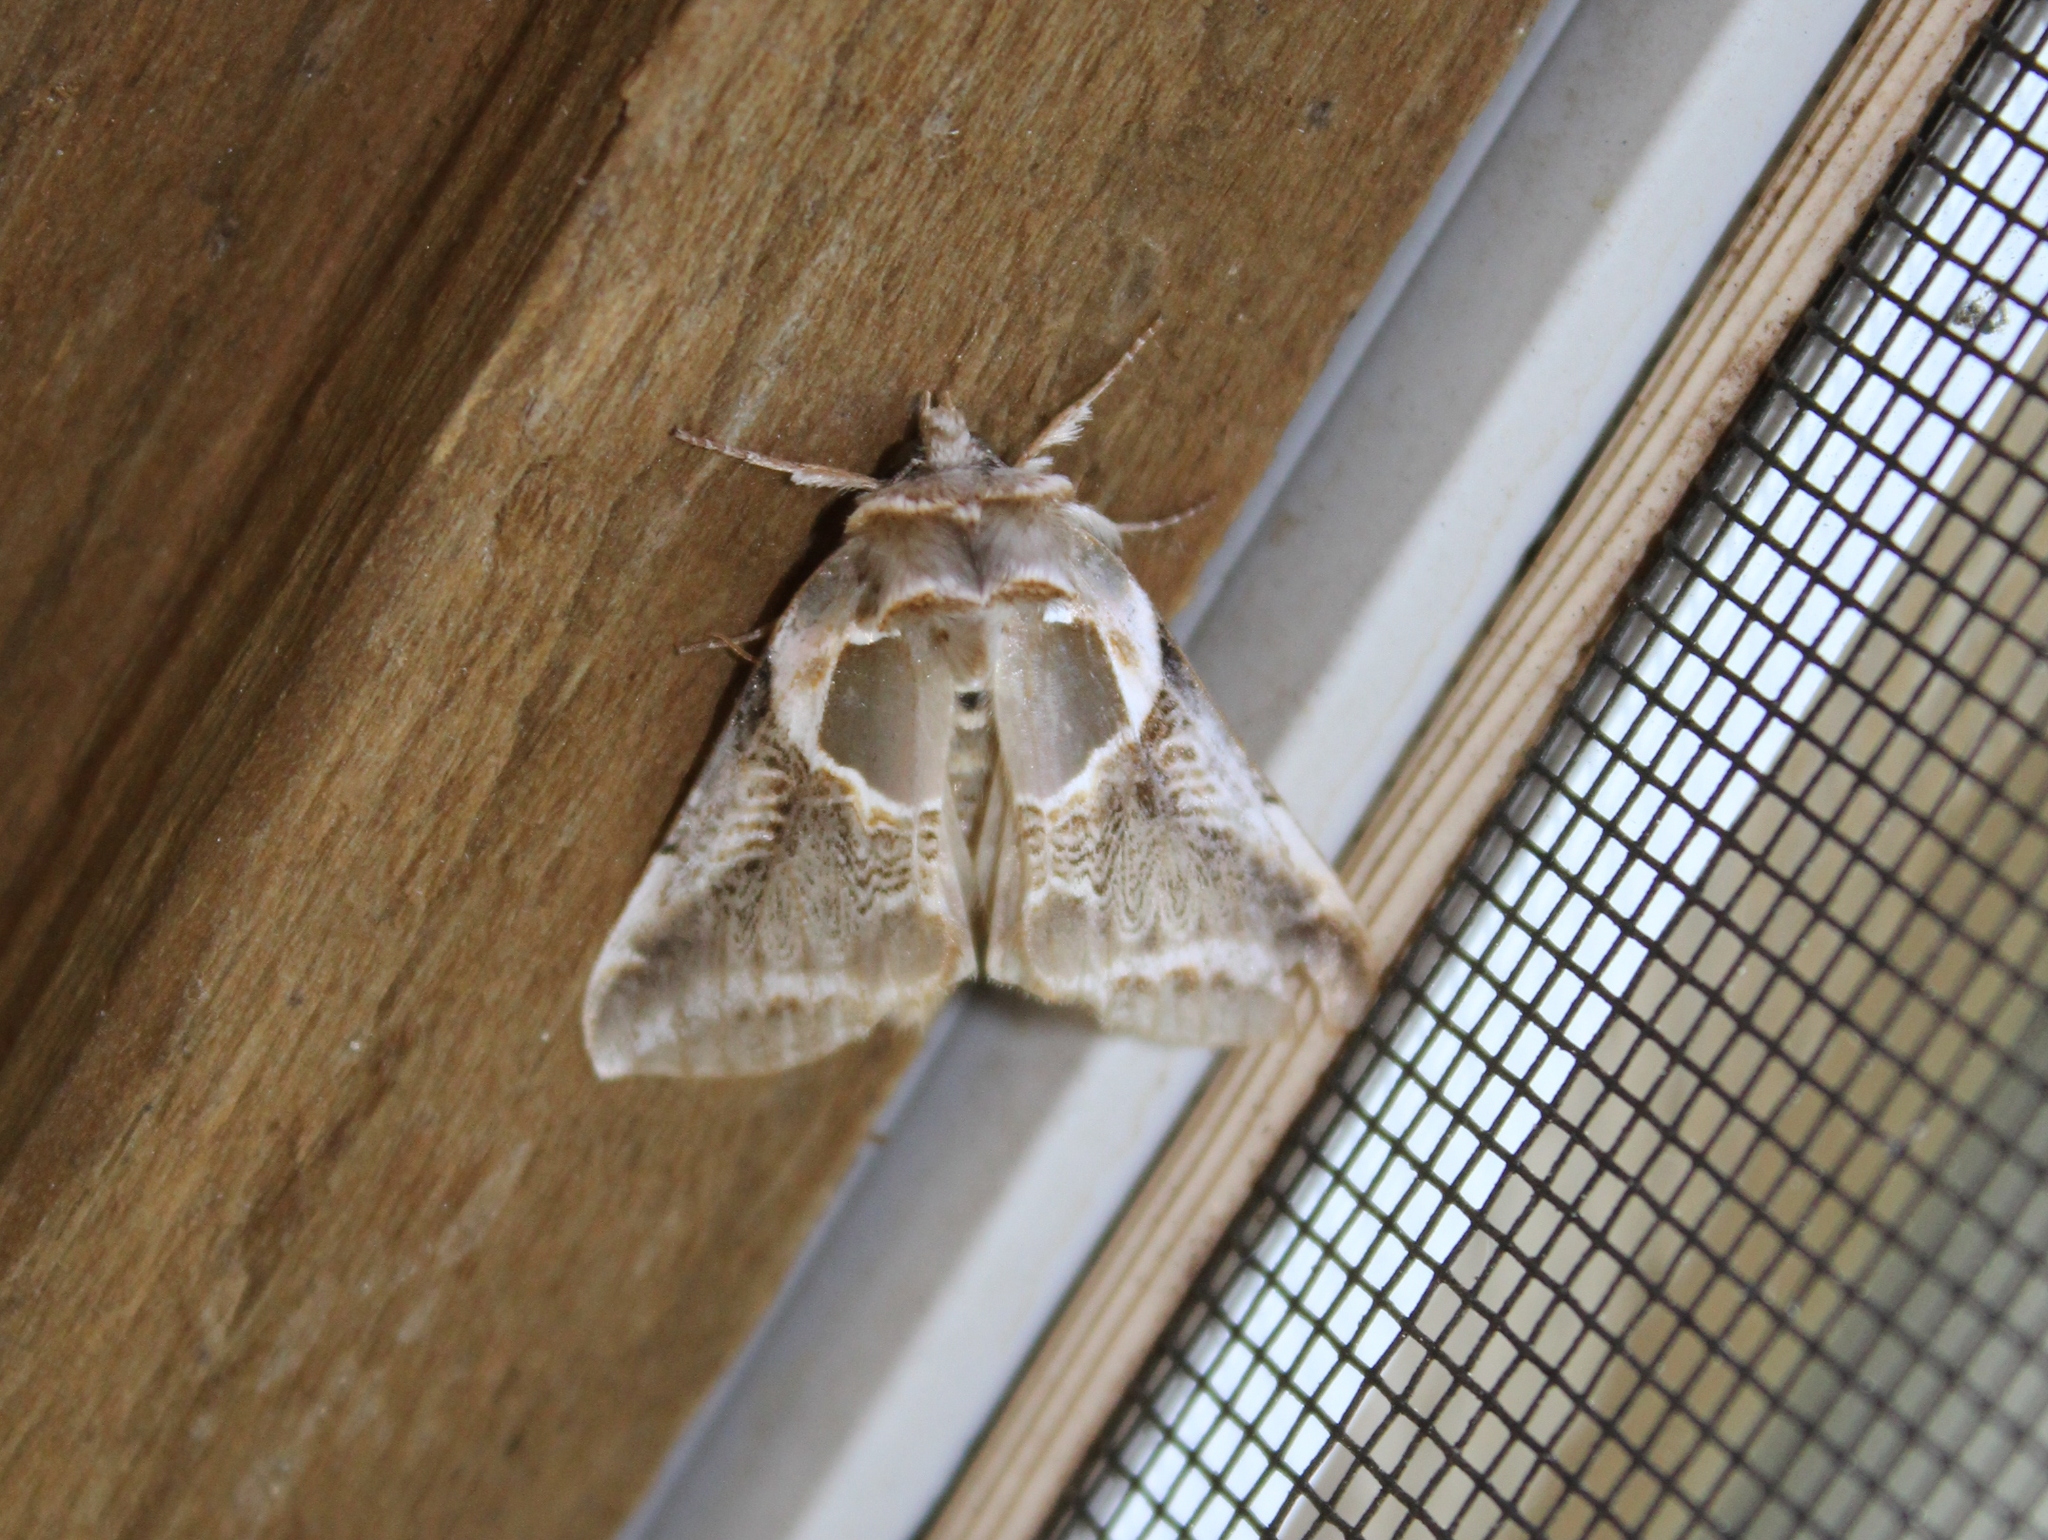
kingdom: Animalia
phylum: Arthropoda
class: Insecta
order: Lepidoptera
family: Drepanidae
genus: Habrosyne
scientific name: Habrosyne scripta
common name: Lettered habrosyne moth
